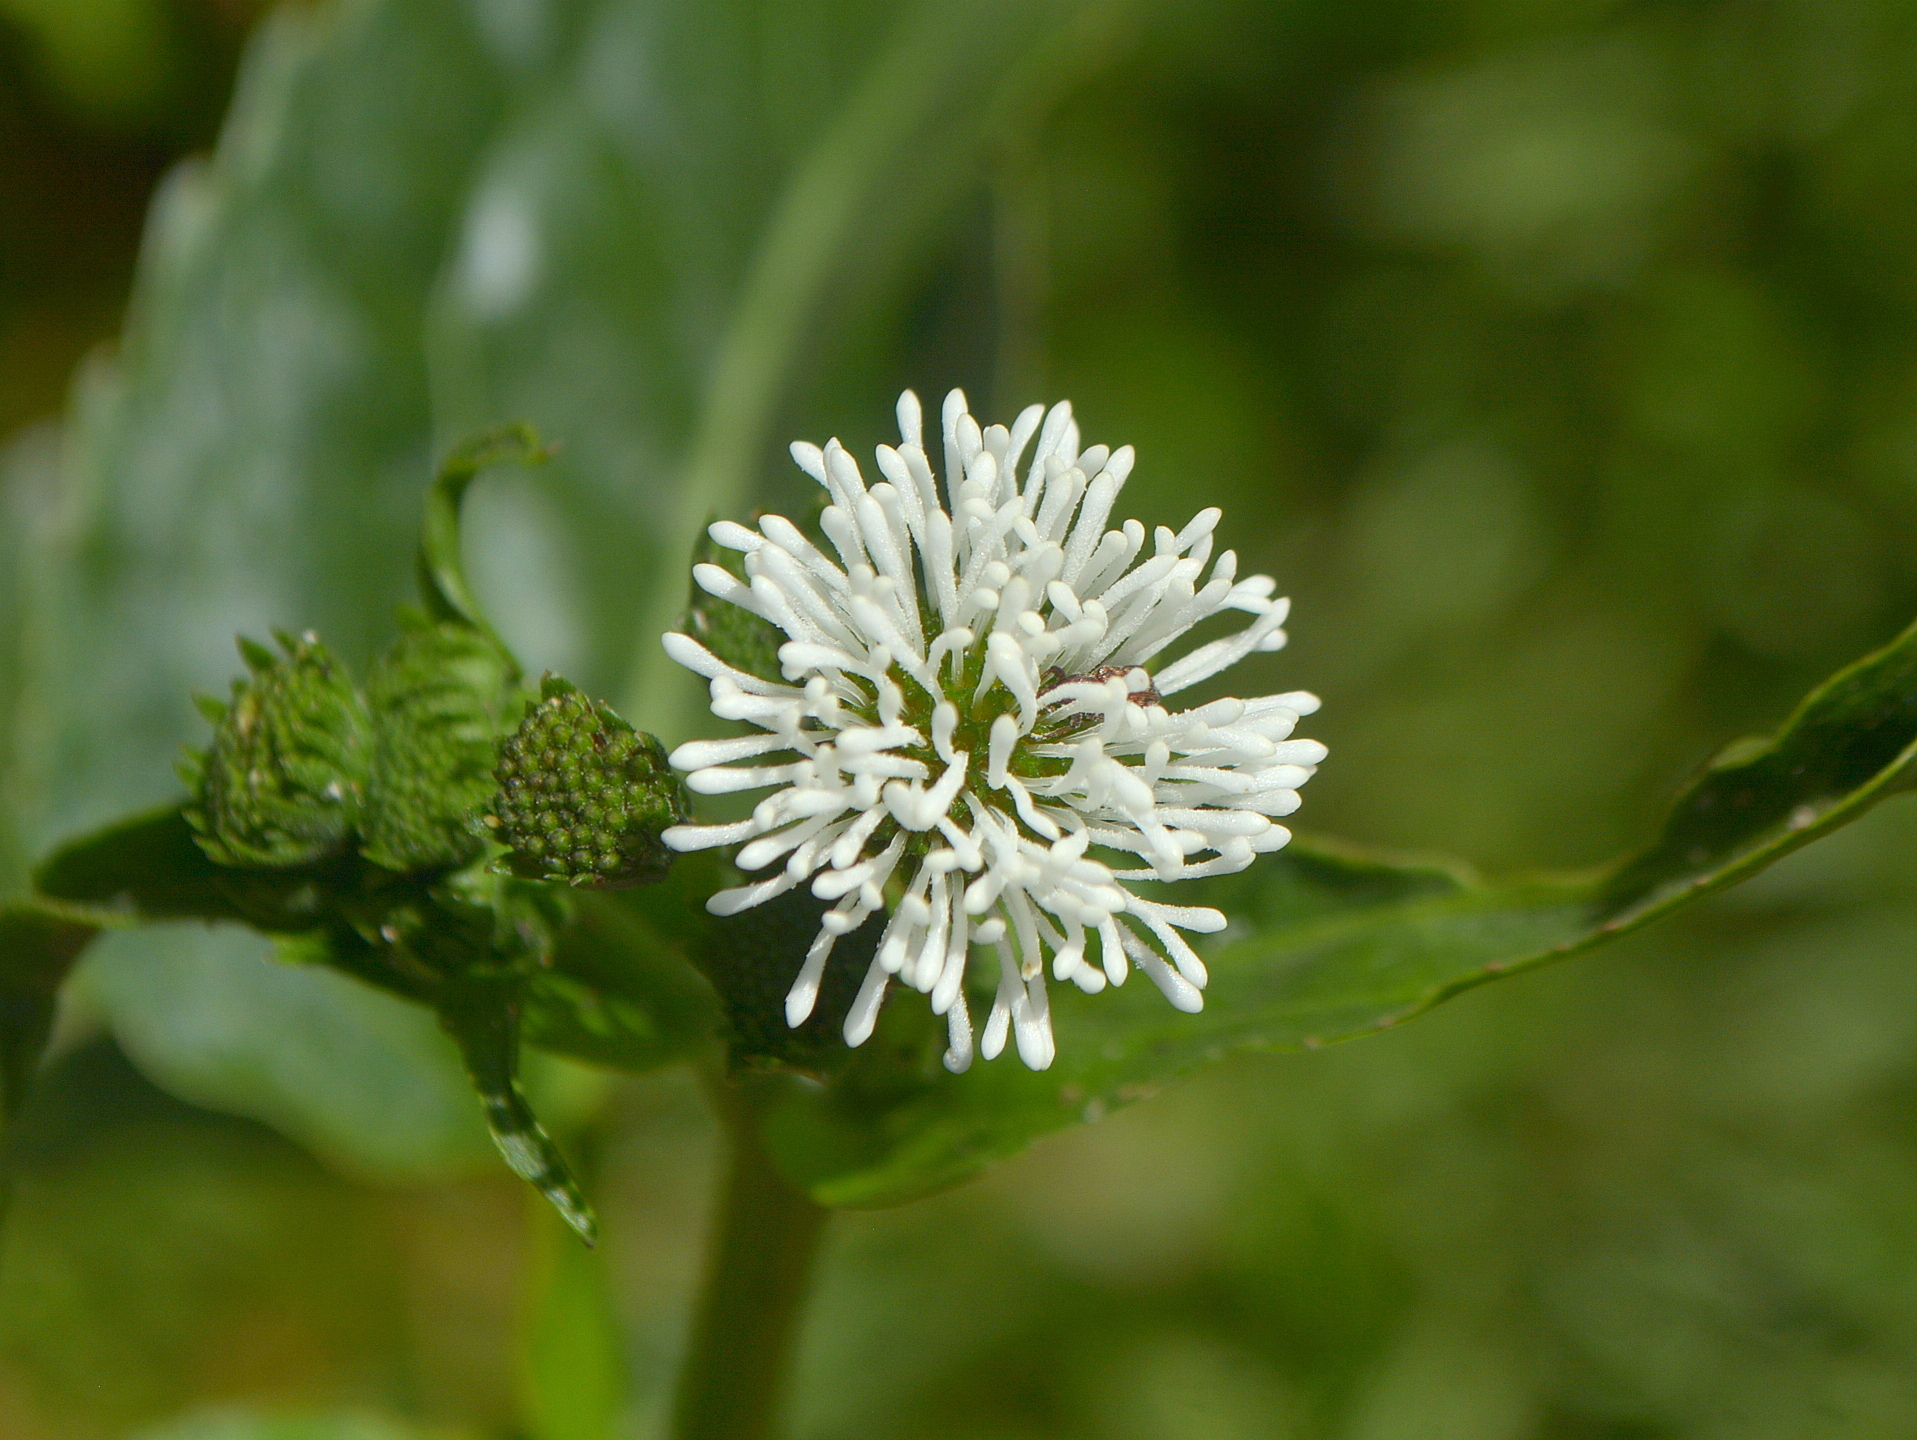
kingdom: Plantae
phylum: Tracheophyta
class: Magnoliopsida
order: Asterales
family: Asteraceae
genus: Gymnocoronis
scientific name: Gymnocoronis spilanthoides
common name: Senegal teaplant
